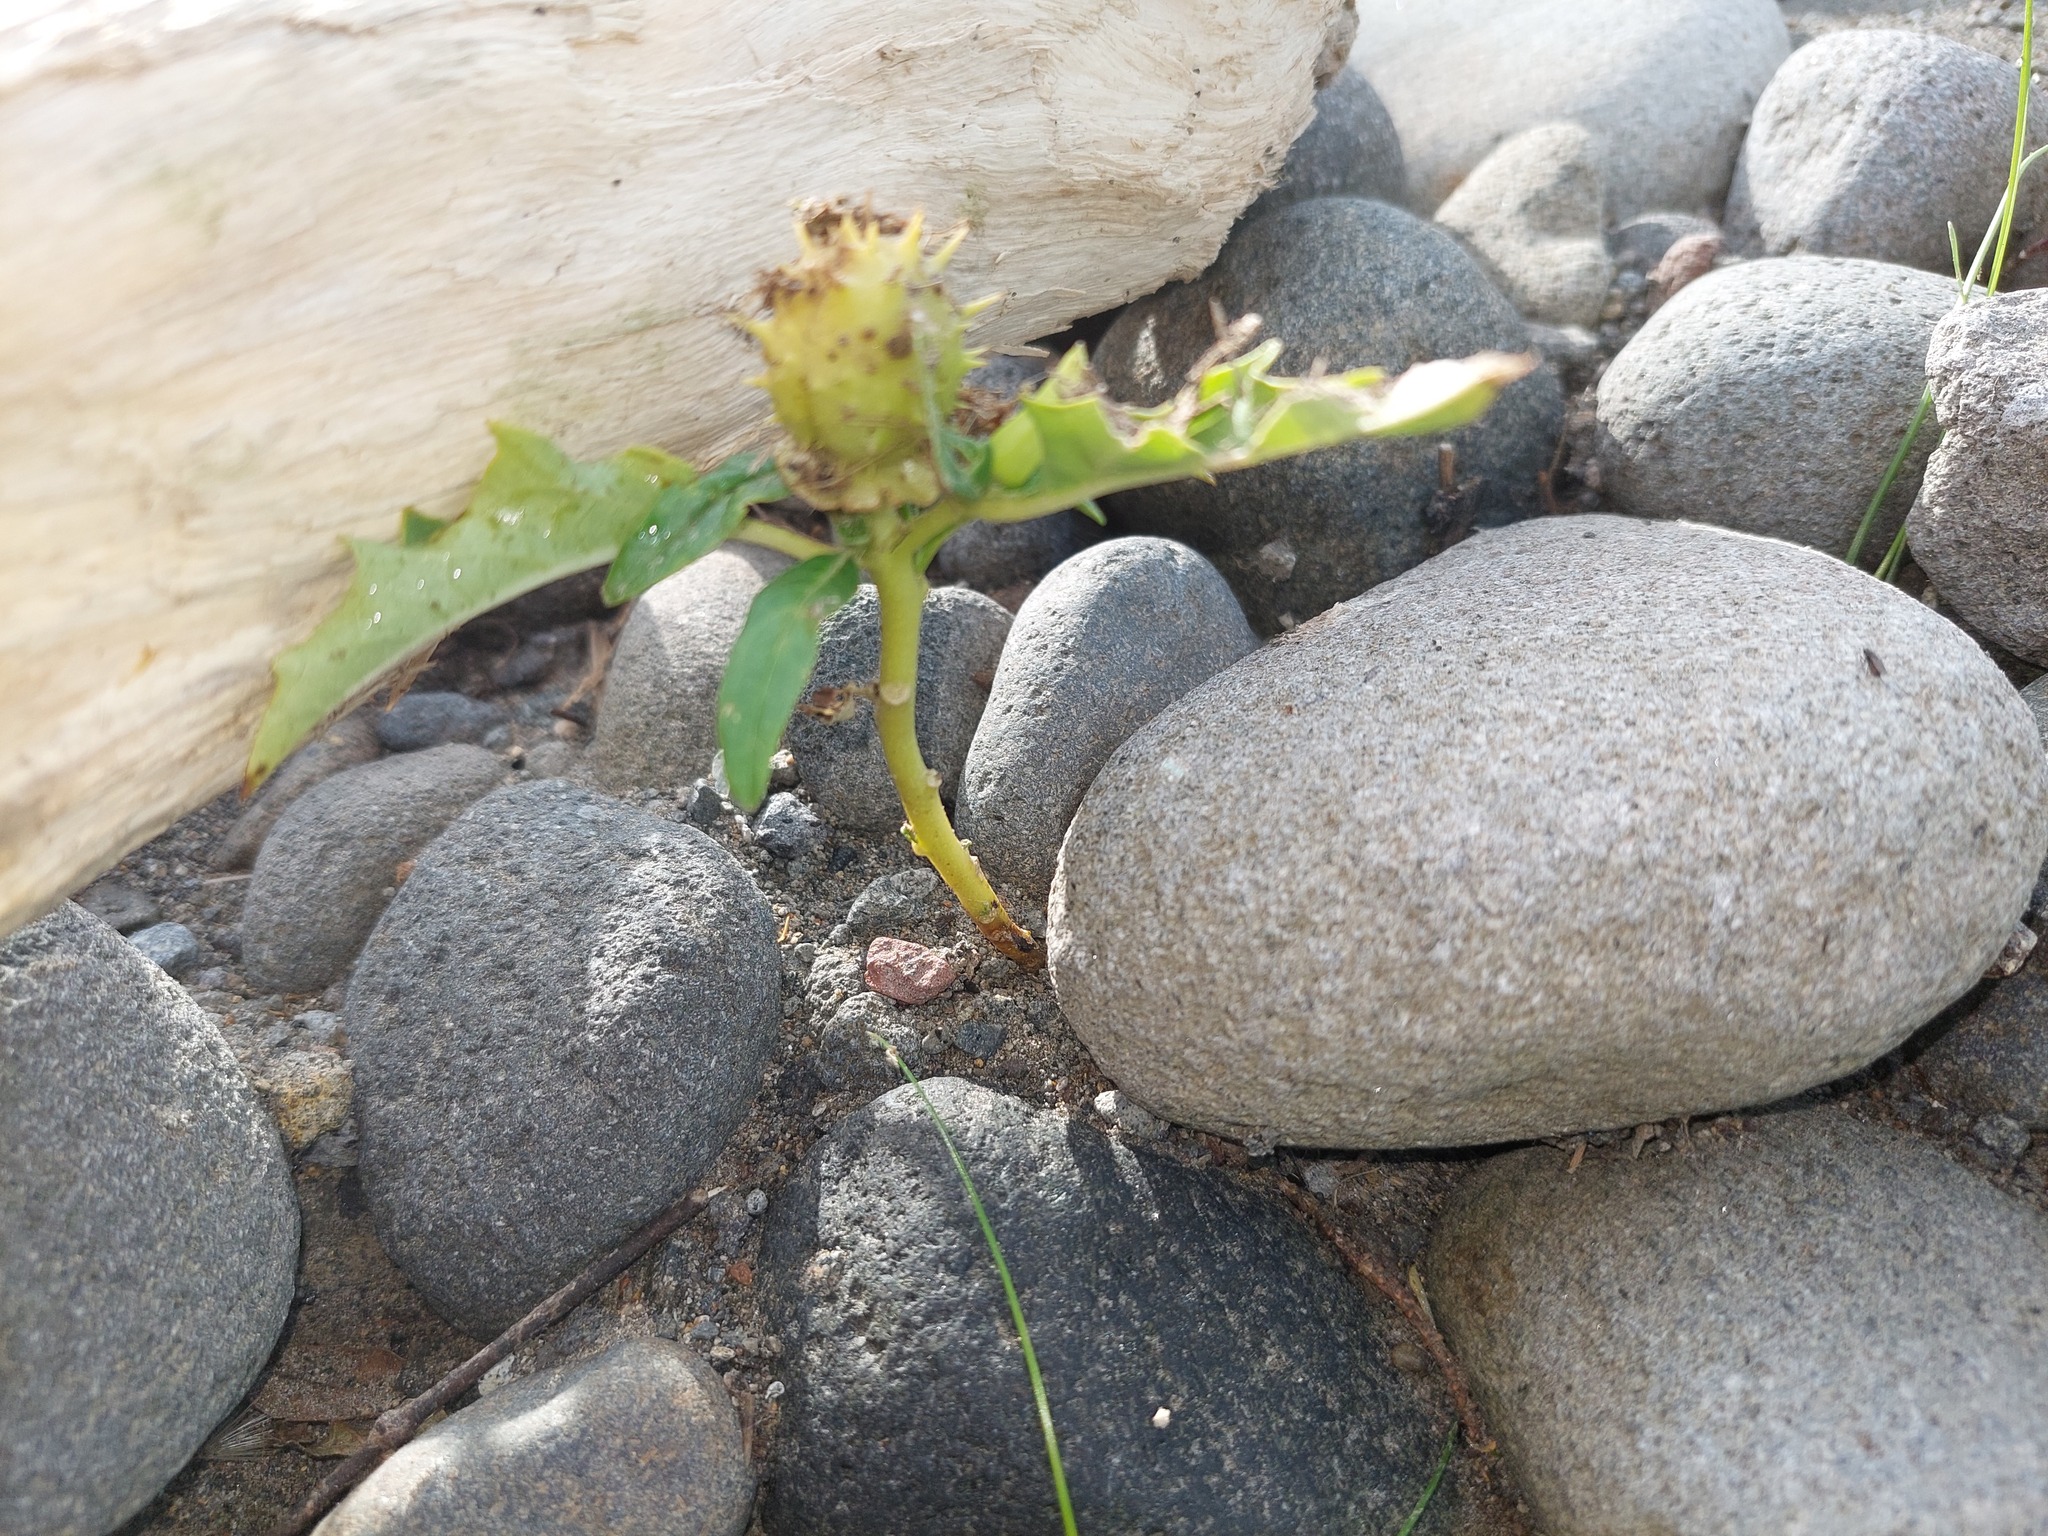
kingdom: Plantae
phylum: Tracheophyta
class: Magnoliopsida
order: Solanales
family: Solanaceae
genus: Datura
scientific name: Datura stramonium
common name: Thorn-apple
